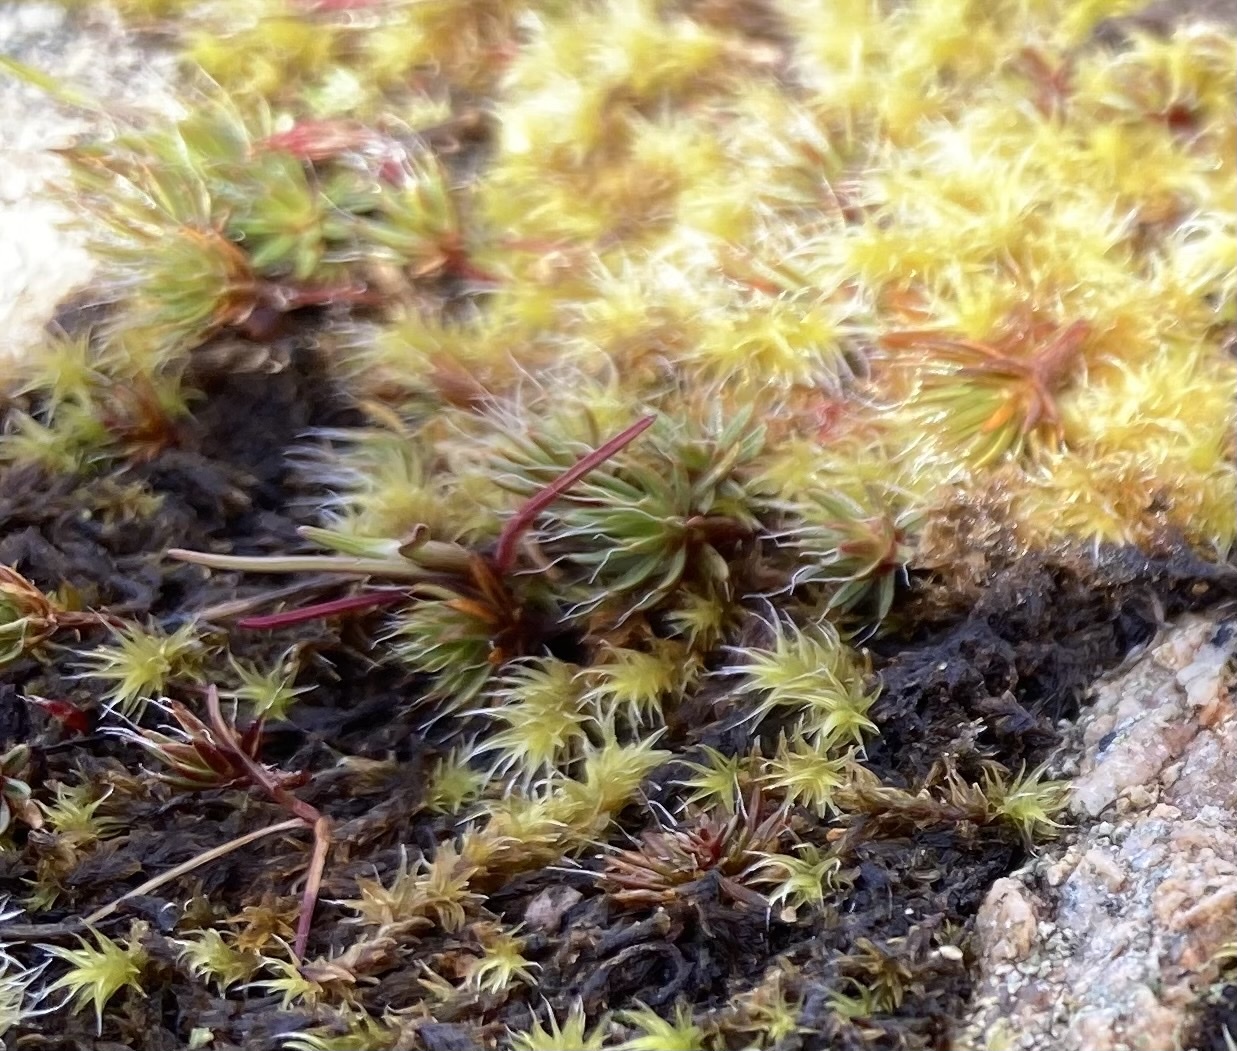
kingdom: Plantae
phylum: Bryophyta
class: Polytrichopsida
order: Polytrichales
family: Polytrichaceae
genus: Polytrichum
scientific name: Polytrichum piliferum
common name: Bristly haircap
